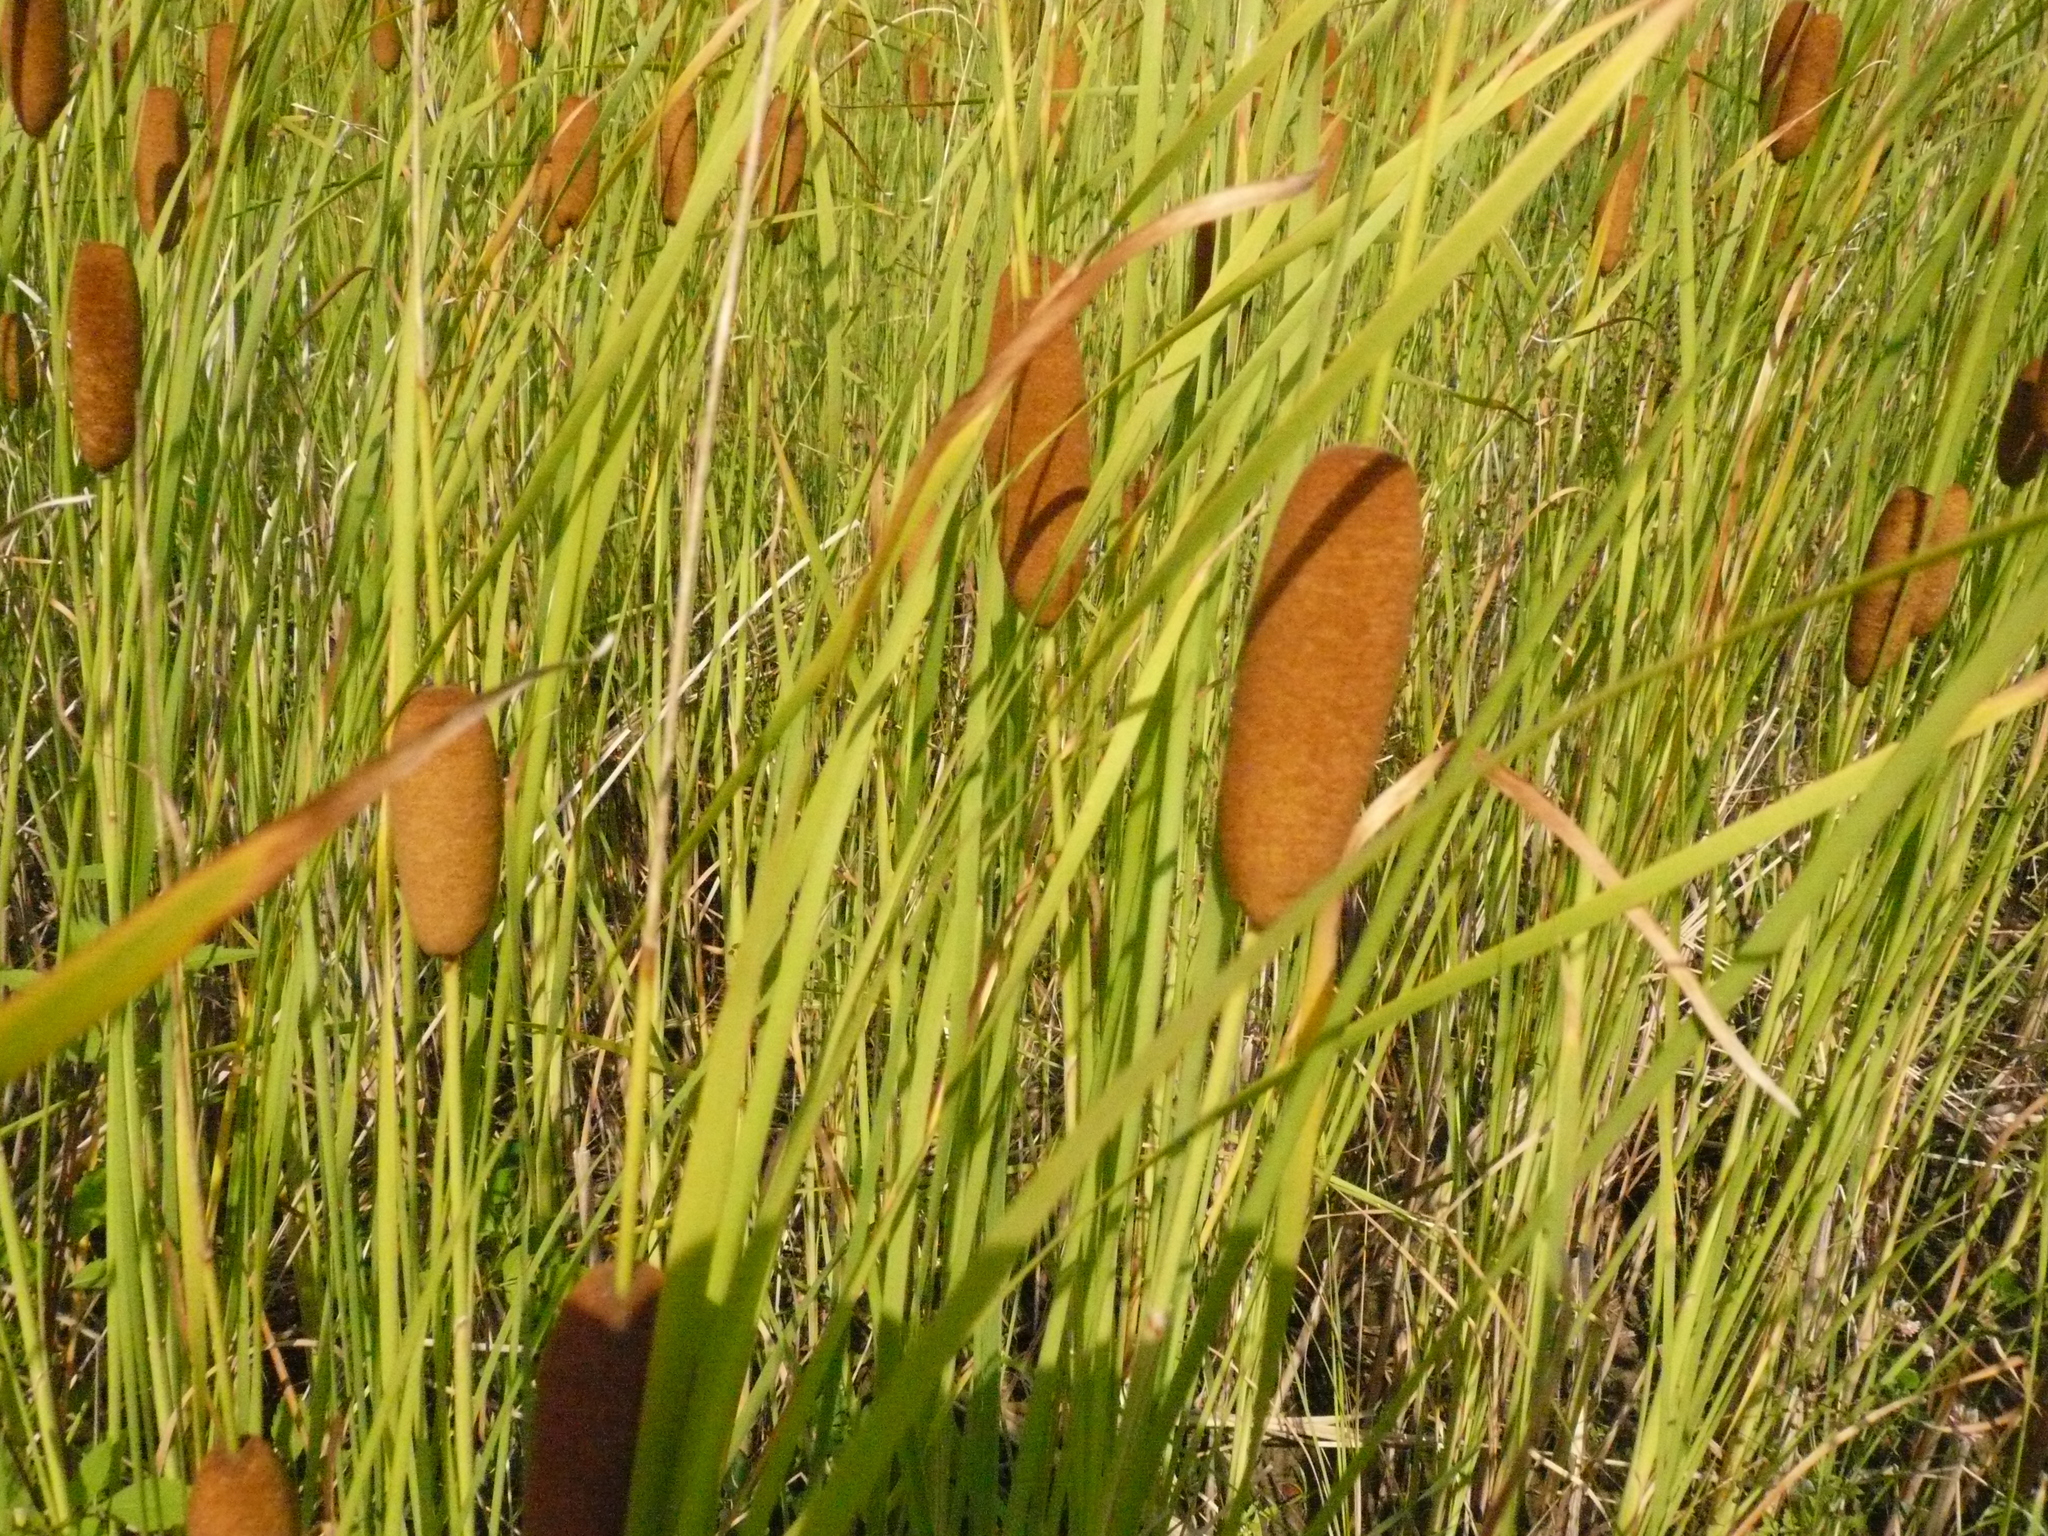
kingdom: Plantae
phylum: Tracheophyta
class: Liliopsida
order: Poales
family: Typhaceae
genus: Typha
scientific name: Typha laxmannii
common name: Laxman’s bulrush
